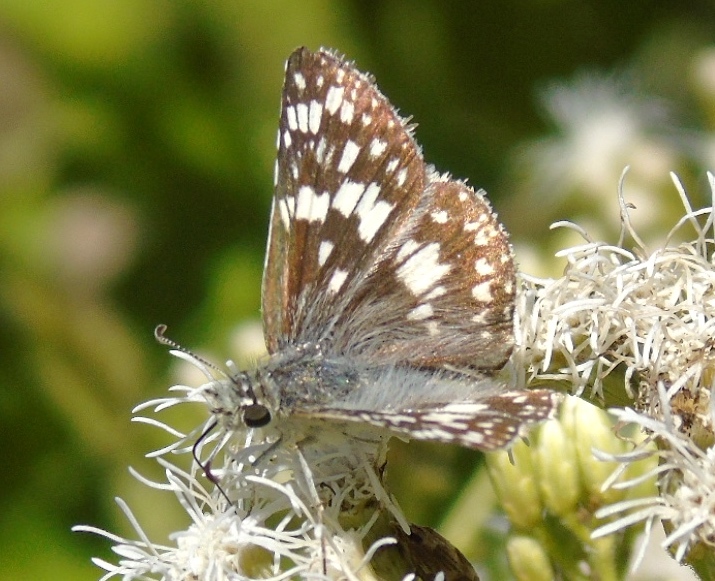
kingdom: Animalia
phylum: Arthropoda
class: Insecta
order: Lepidoptera
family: Hesperiidae
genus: Burnsius
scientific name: Burnsius
